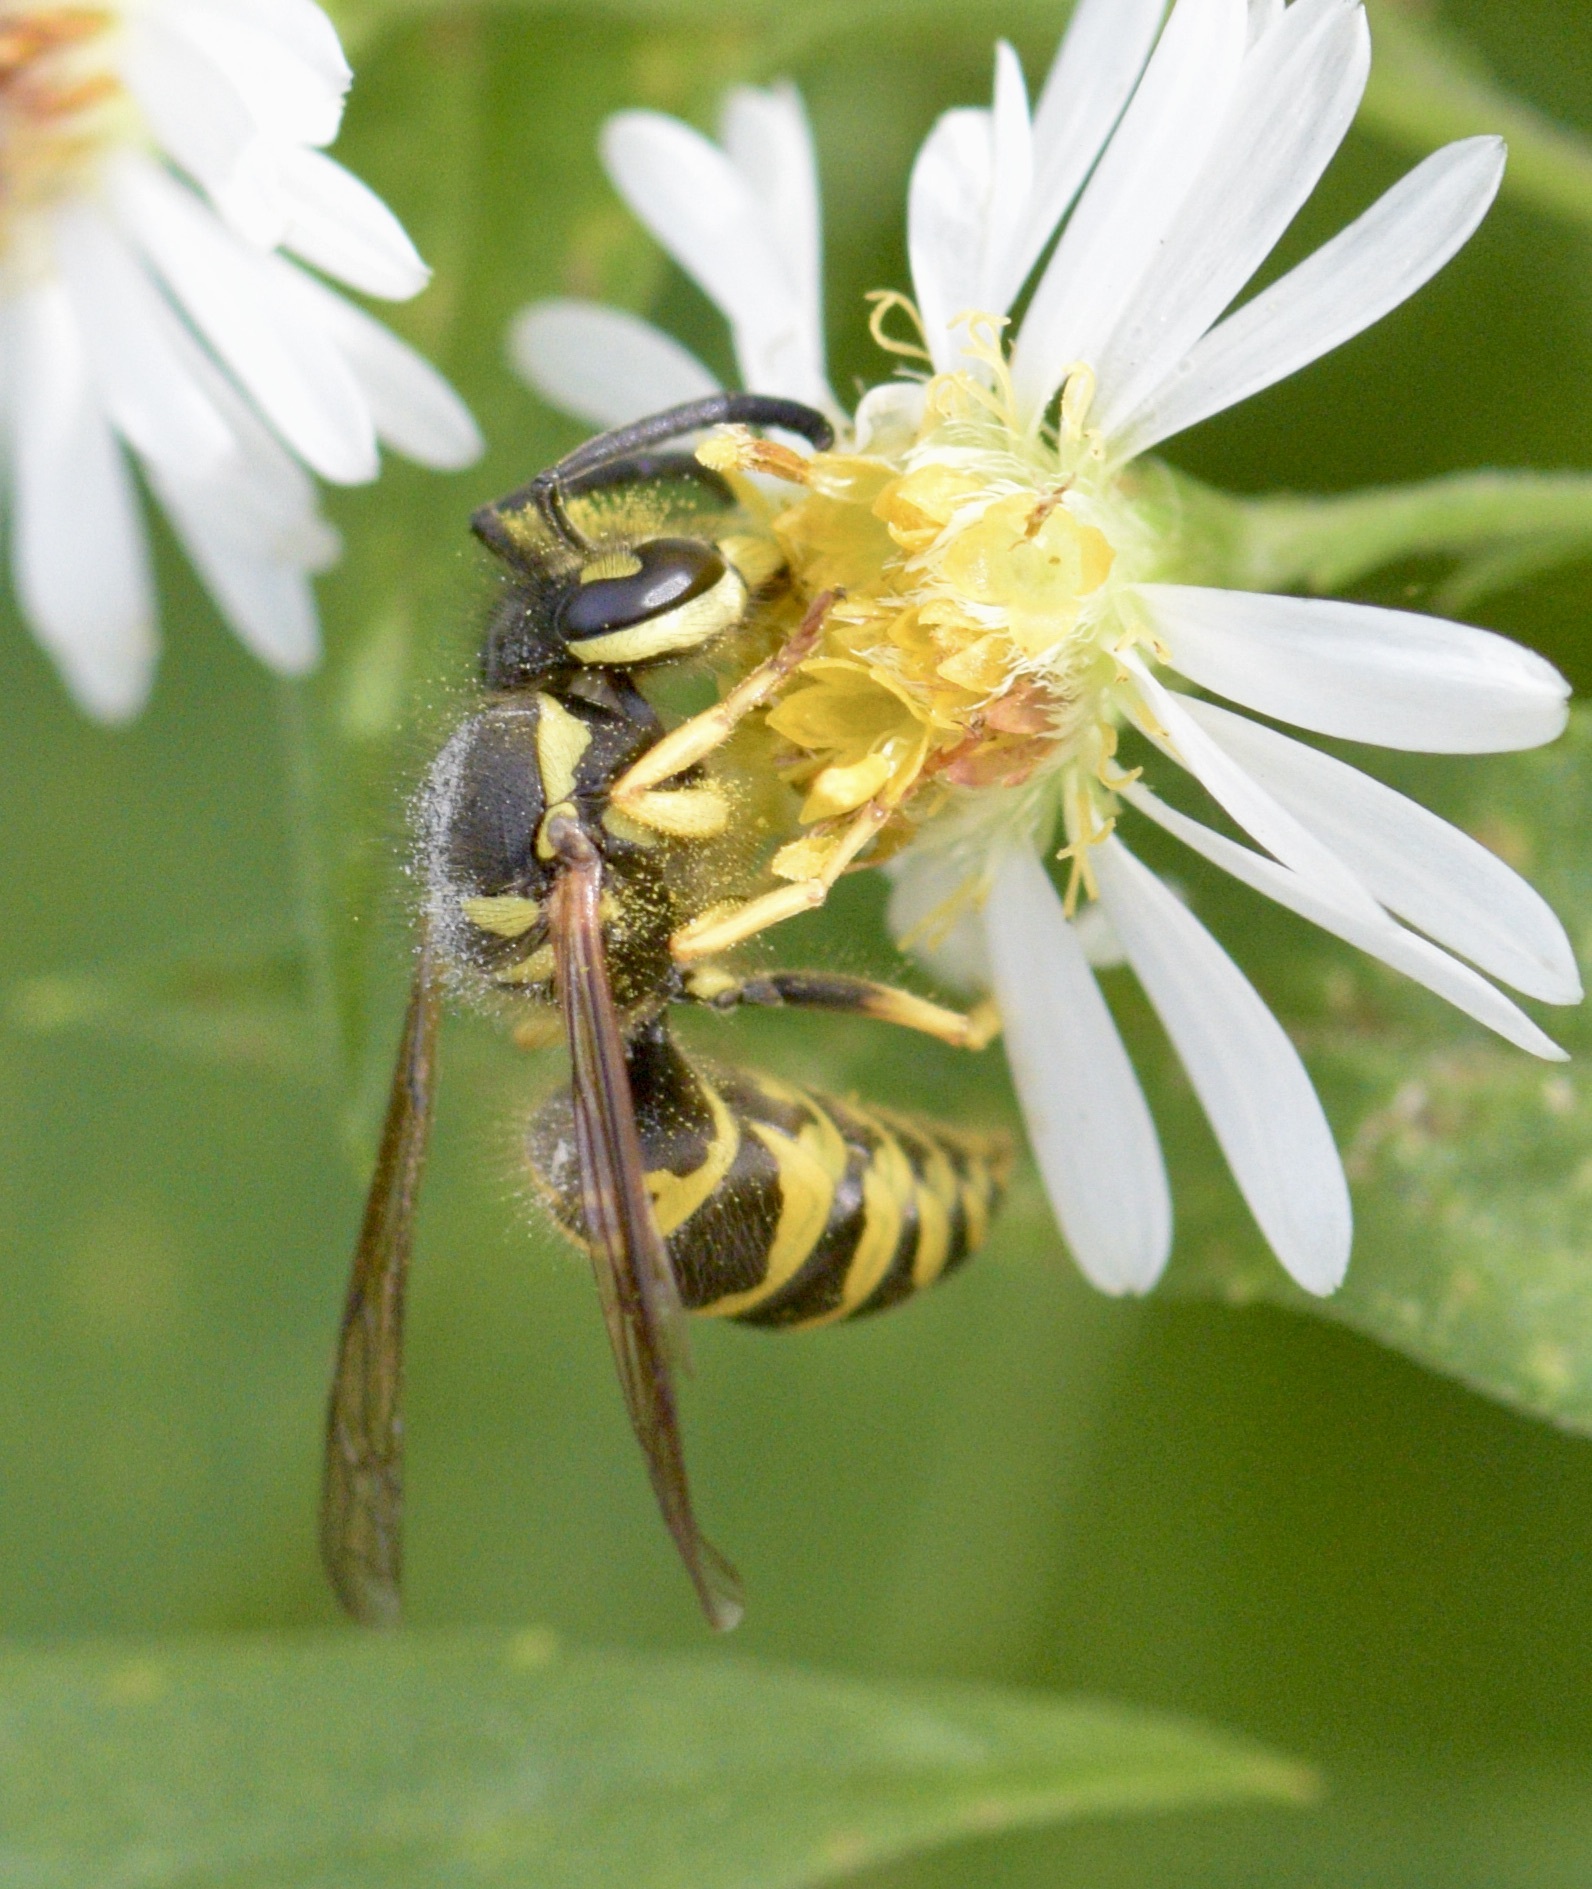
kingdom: Animalia
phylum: Arthropoda
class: Insecta
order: Hymenoptera
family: Vespidae
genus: Vespula
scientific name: Vespula maculifrons
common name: Eastern yellowjacket
